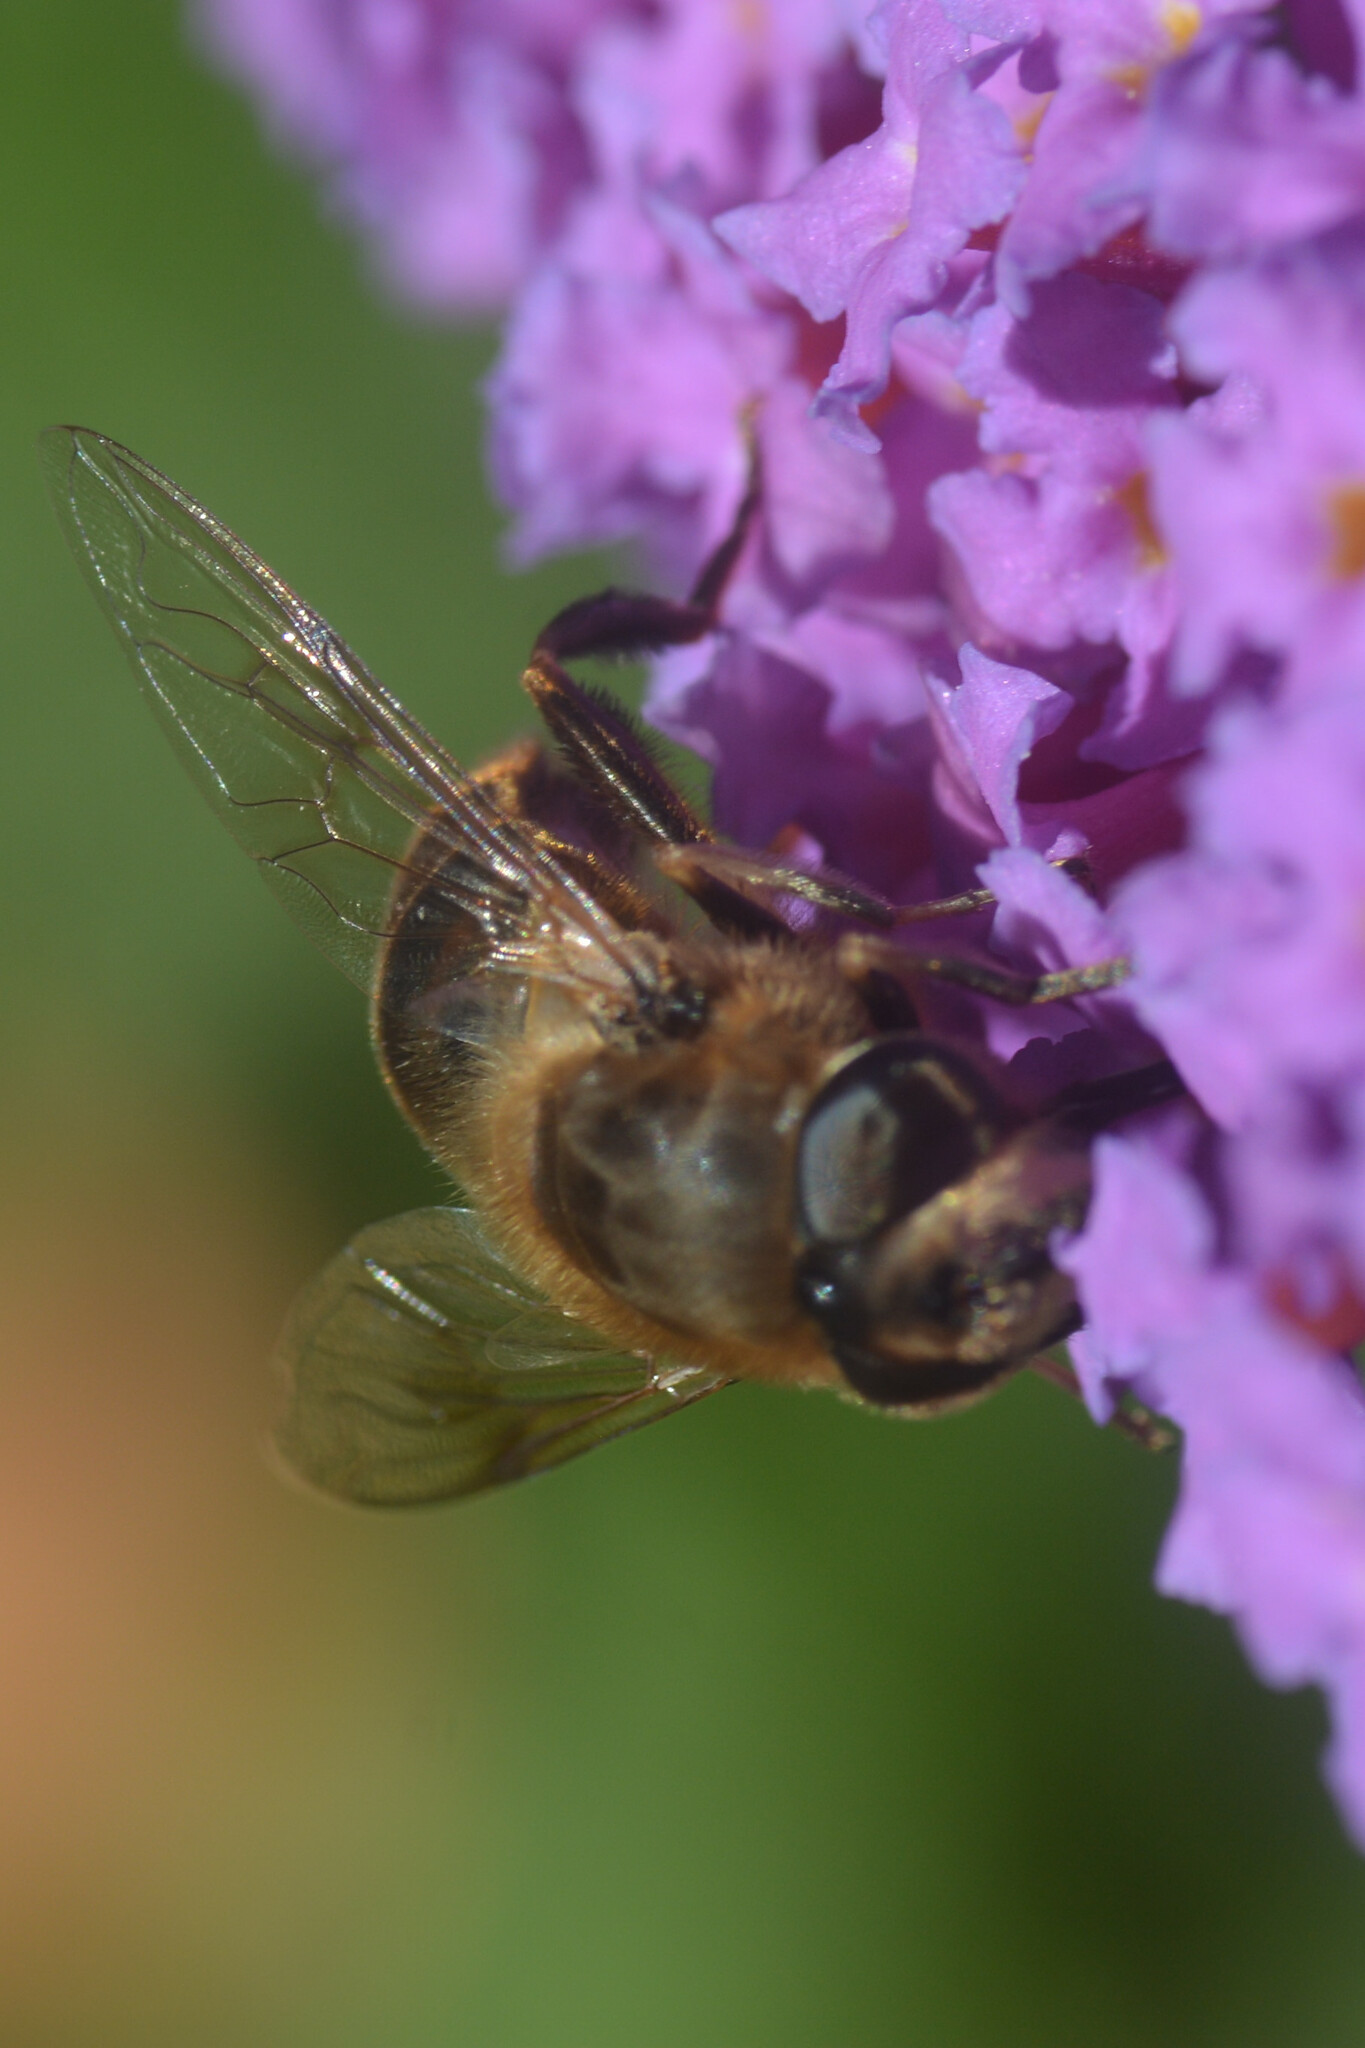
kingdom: Animalia
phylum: Arthropoda
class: Insecta
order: Diptera
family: Syrphidae
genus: Eristalis
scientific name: Eristalis tenax
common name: Drone fly
